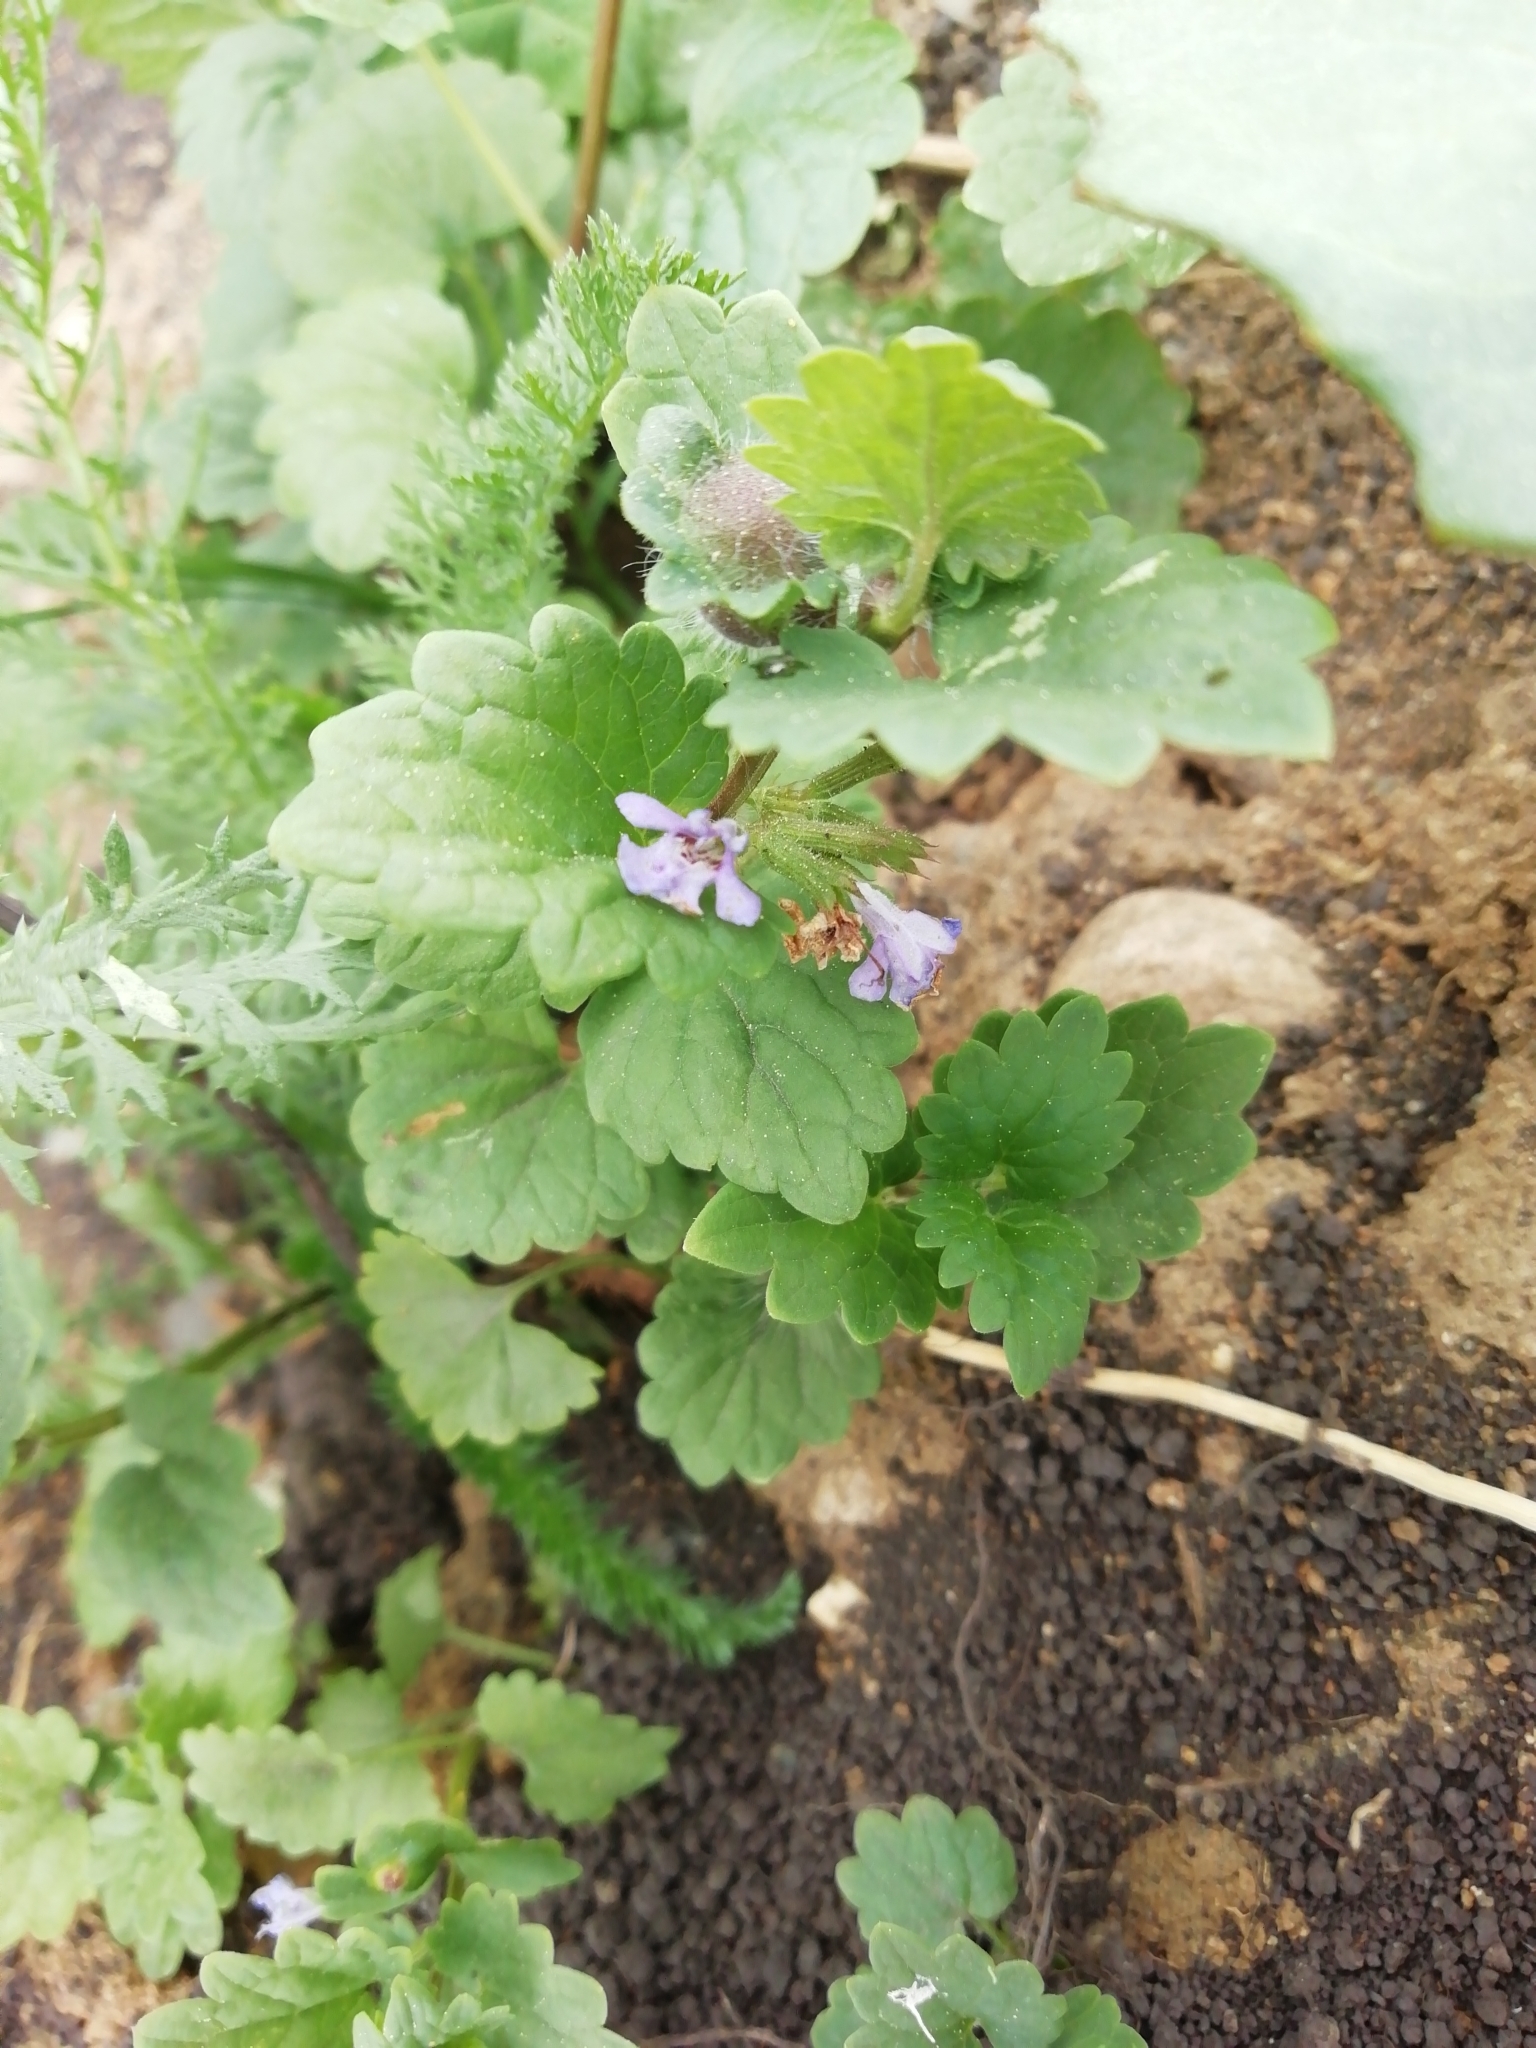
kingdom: Plantae
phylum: Tracheophyta
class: Magnoliopsida
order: Lamiales
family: Lamiaceae
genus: Glechoma
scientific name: Glechoma hederacea
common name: Ground ivy
